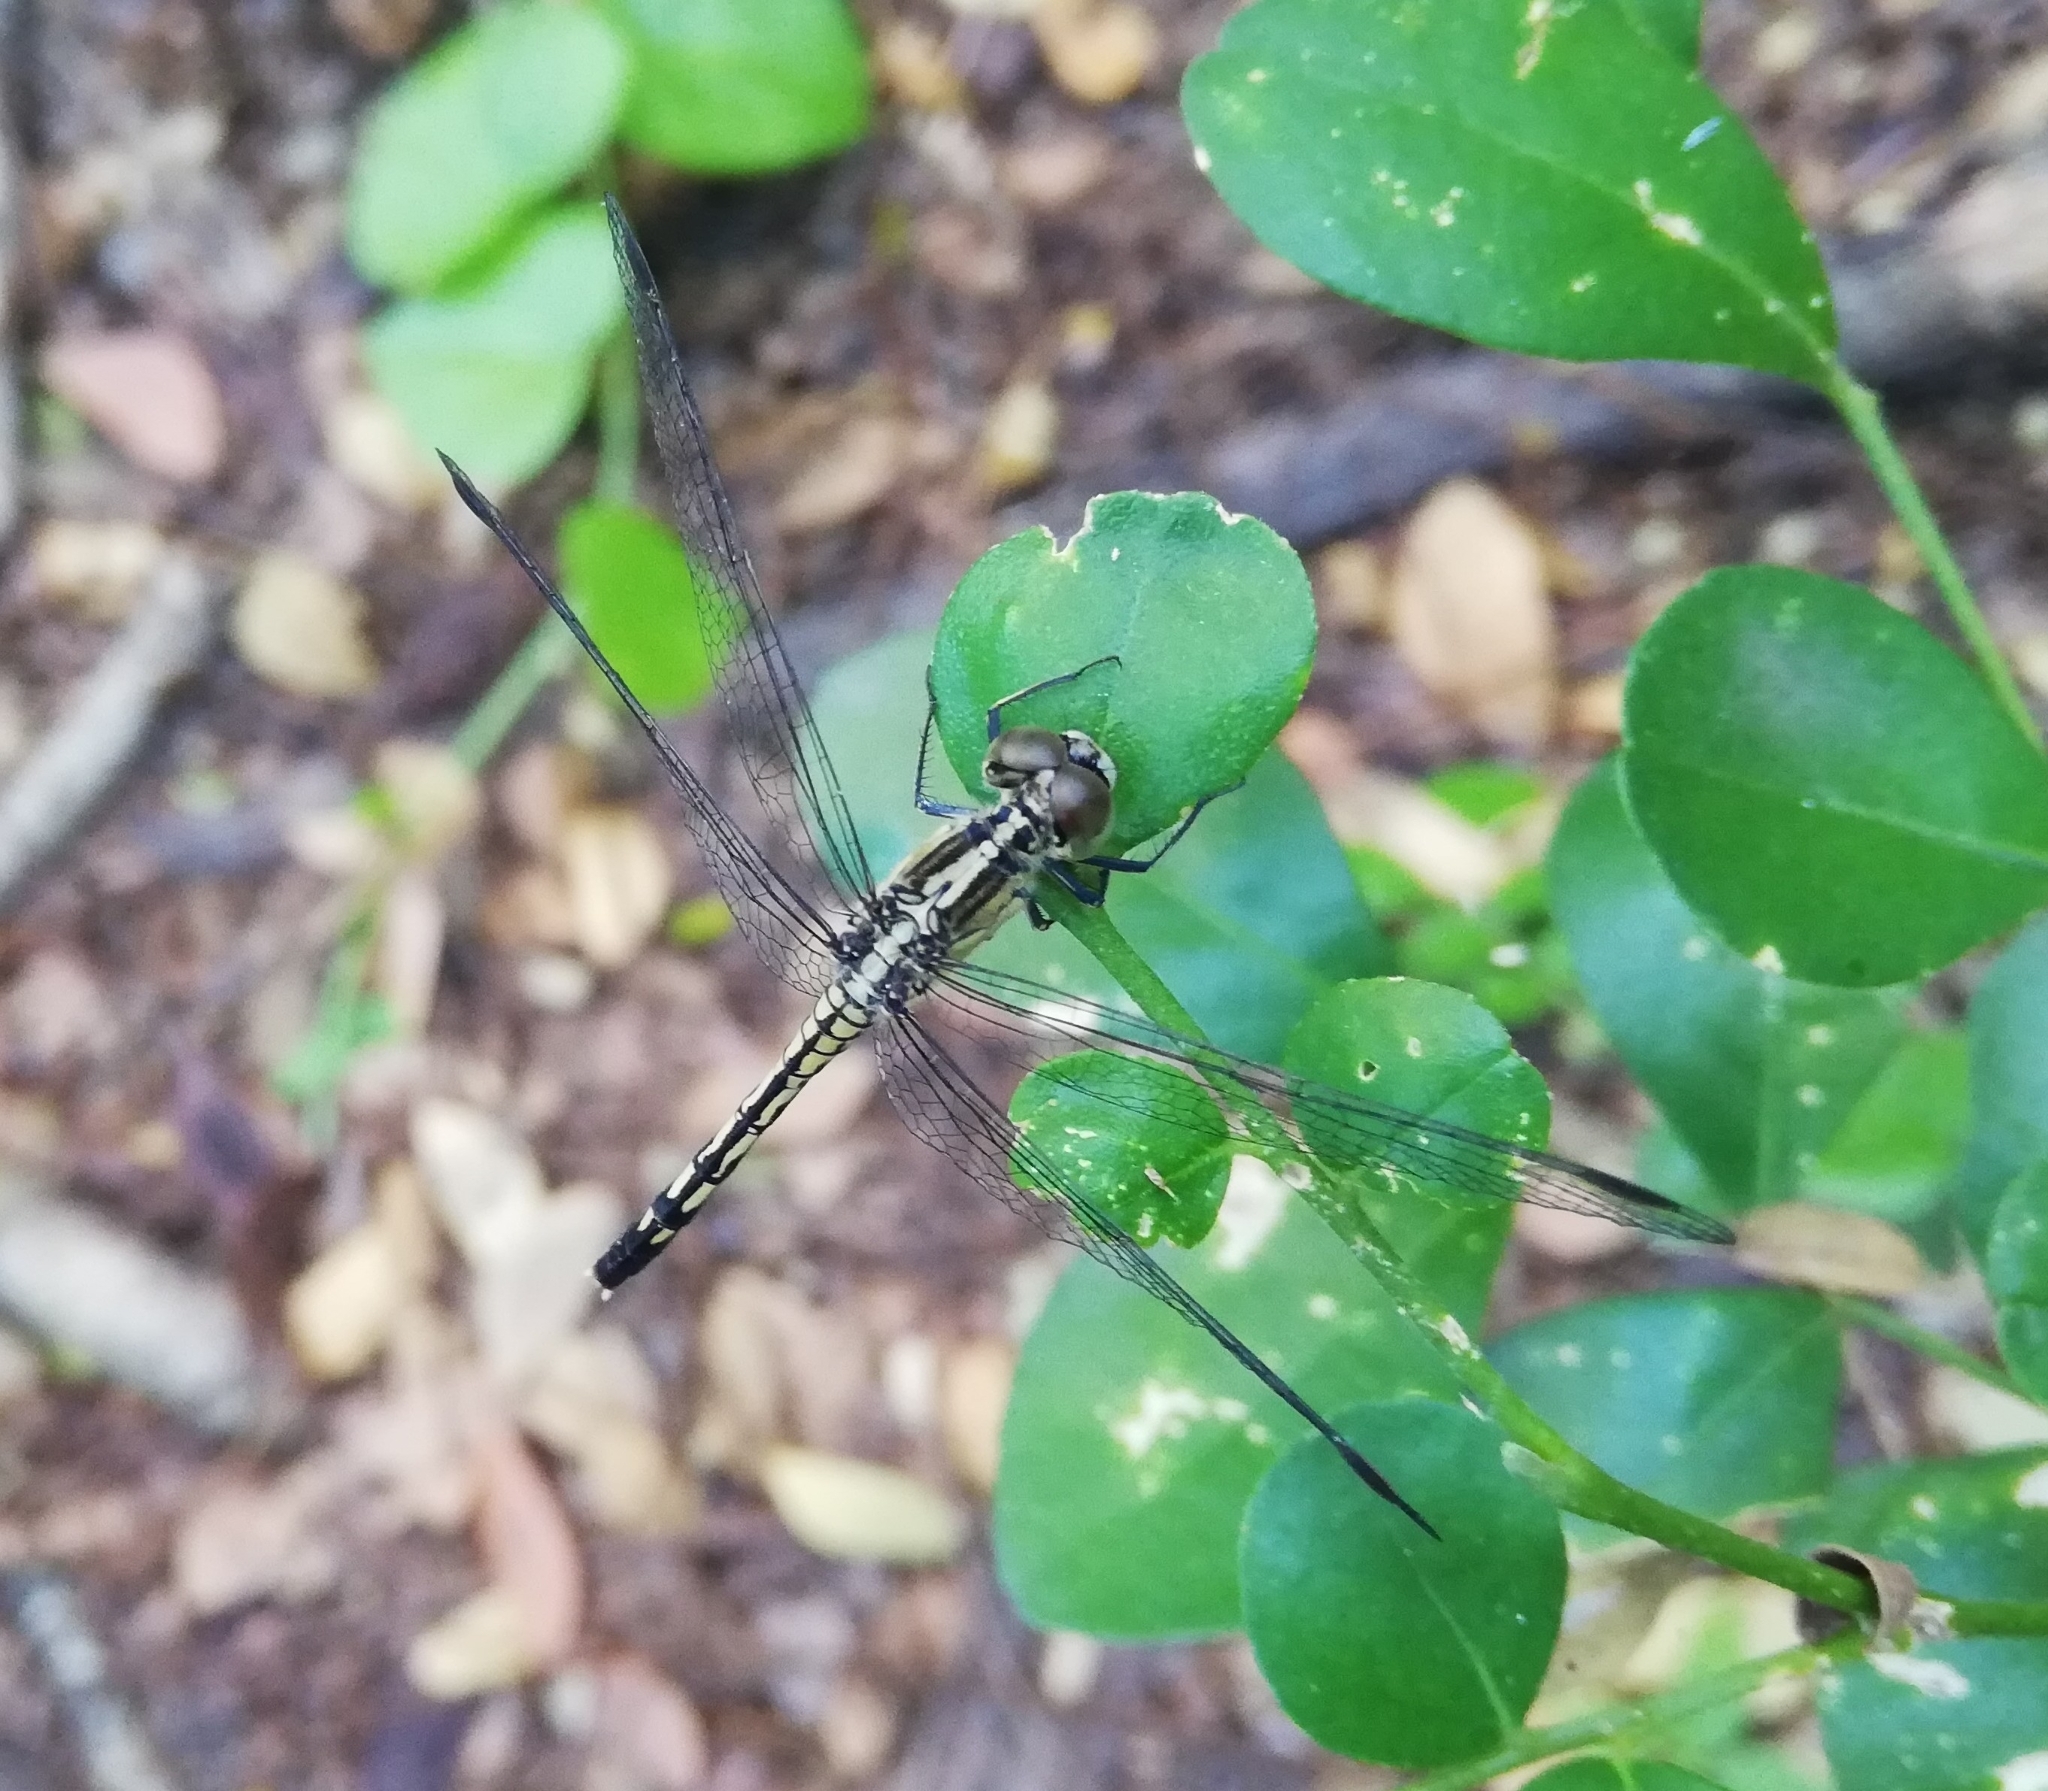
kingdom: Animalia
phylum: Arthropoda
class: Insecta
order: Odonata
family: Libellulidae
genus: Diplacodes
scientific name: Diplacodes trivialis
